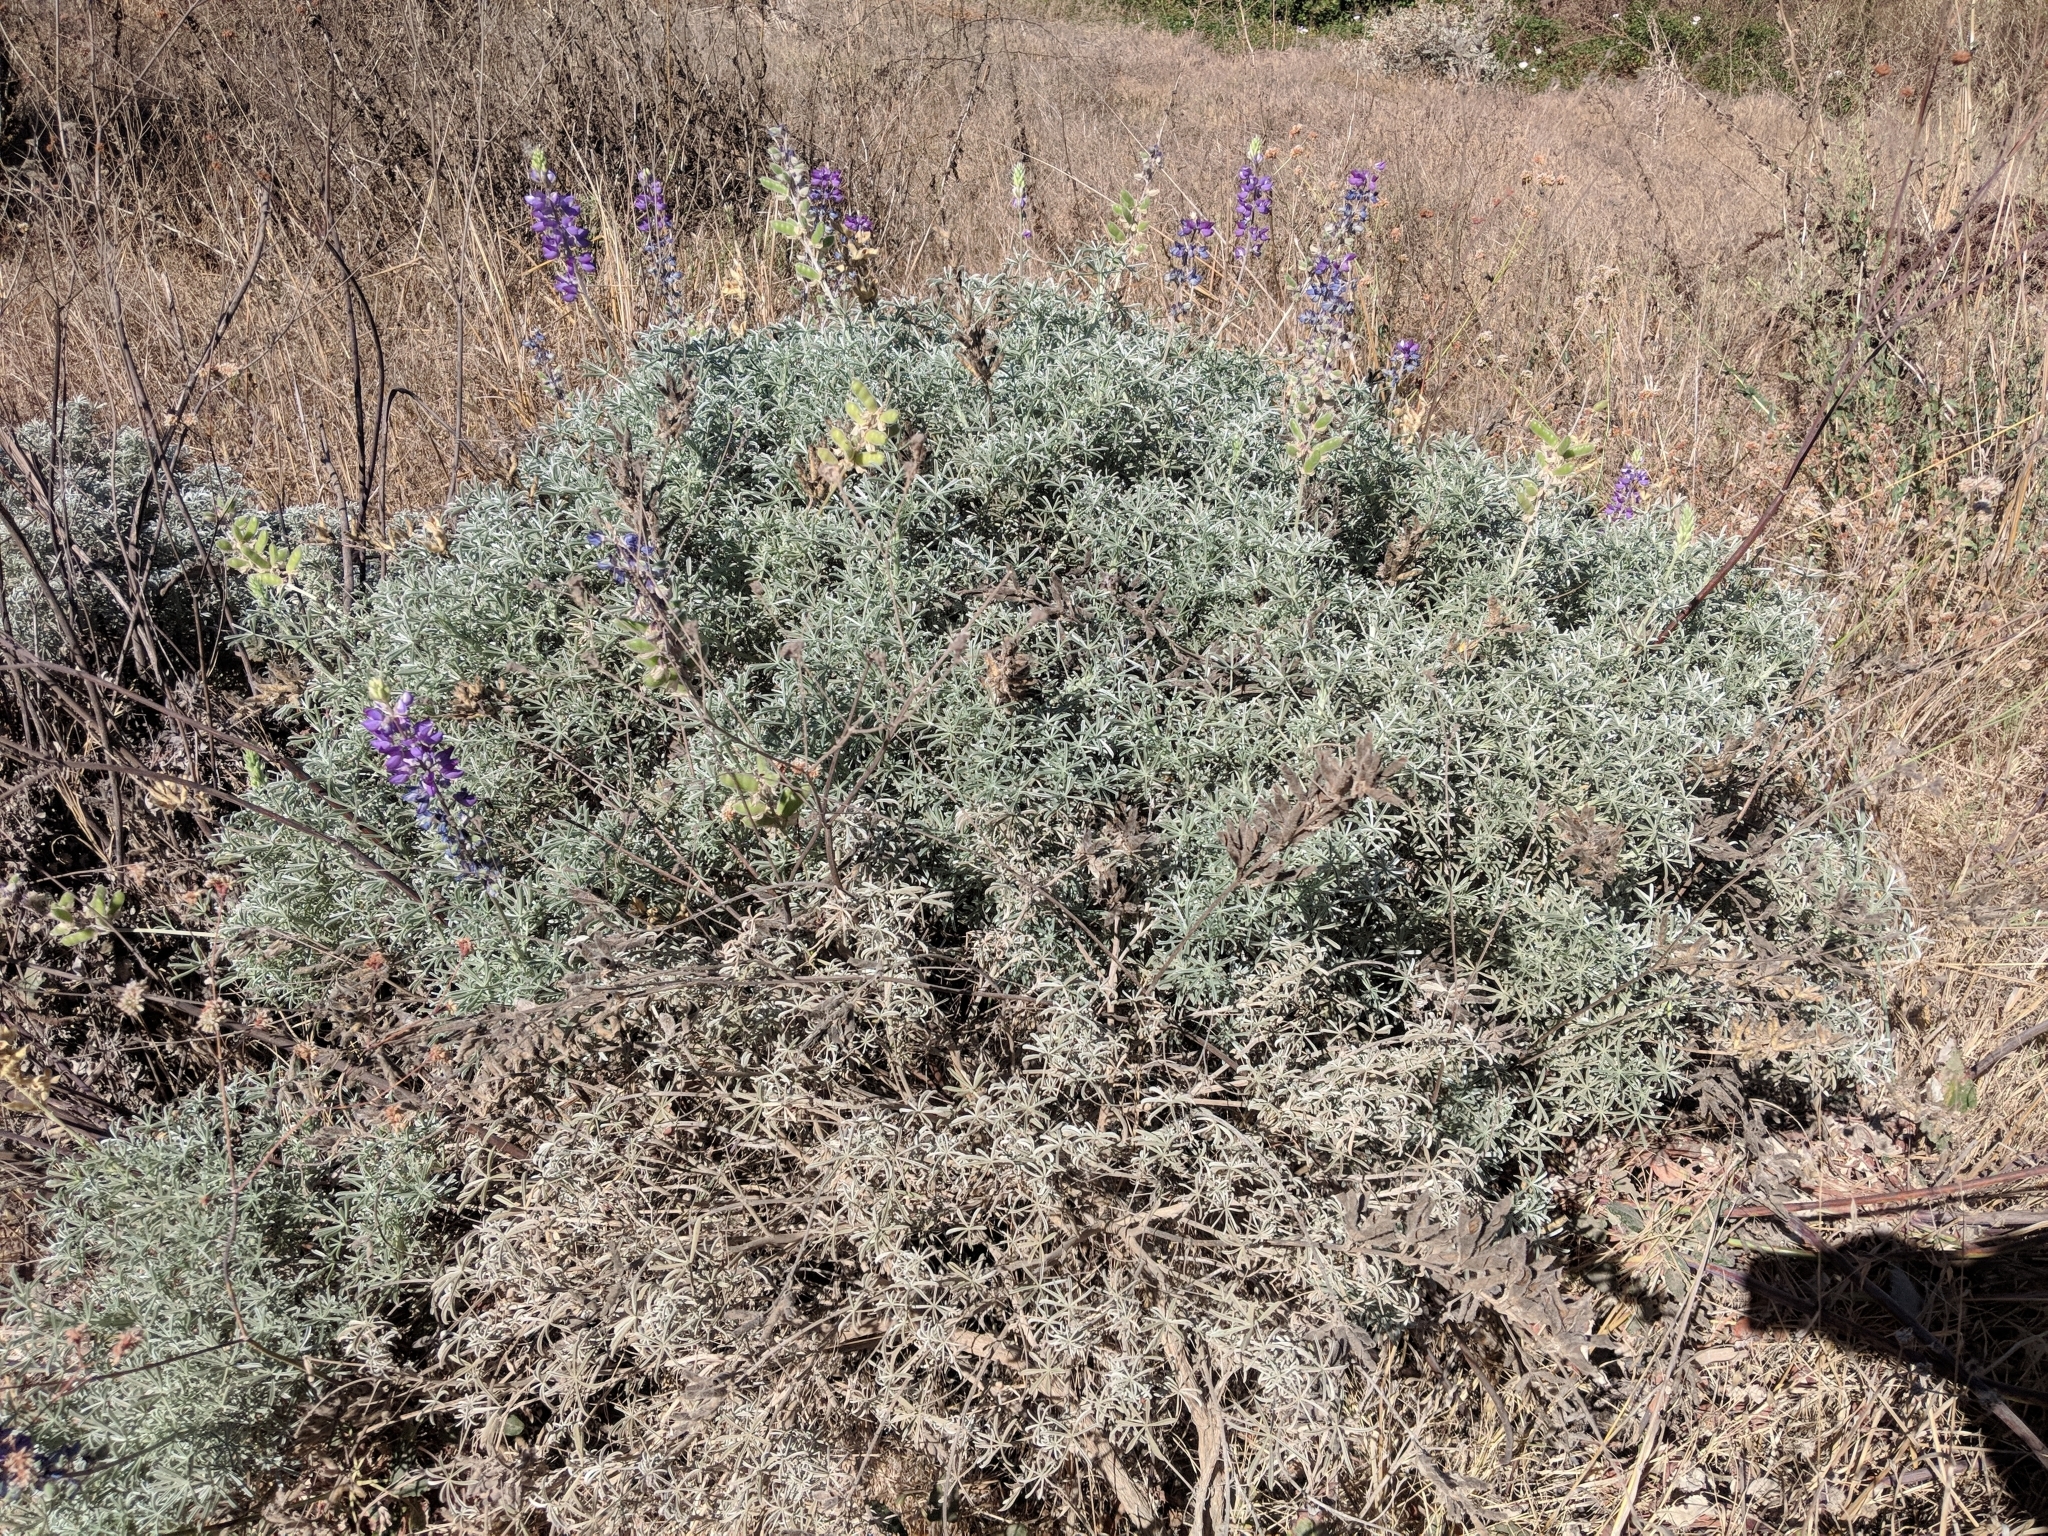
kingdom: Plantae
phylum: Tracheophyta
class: Magnoliopsida
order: Fabales
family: Fabaceae
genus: Lupinus
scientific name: Lupinus albifrons
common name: Foothill lupine
